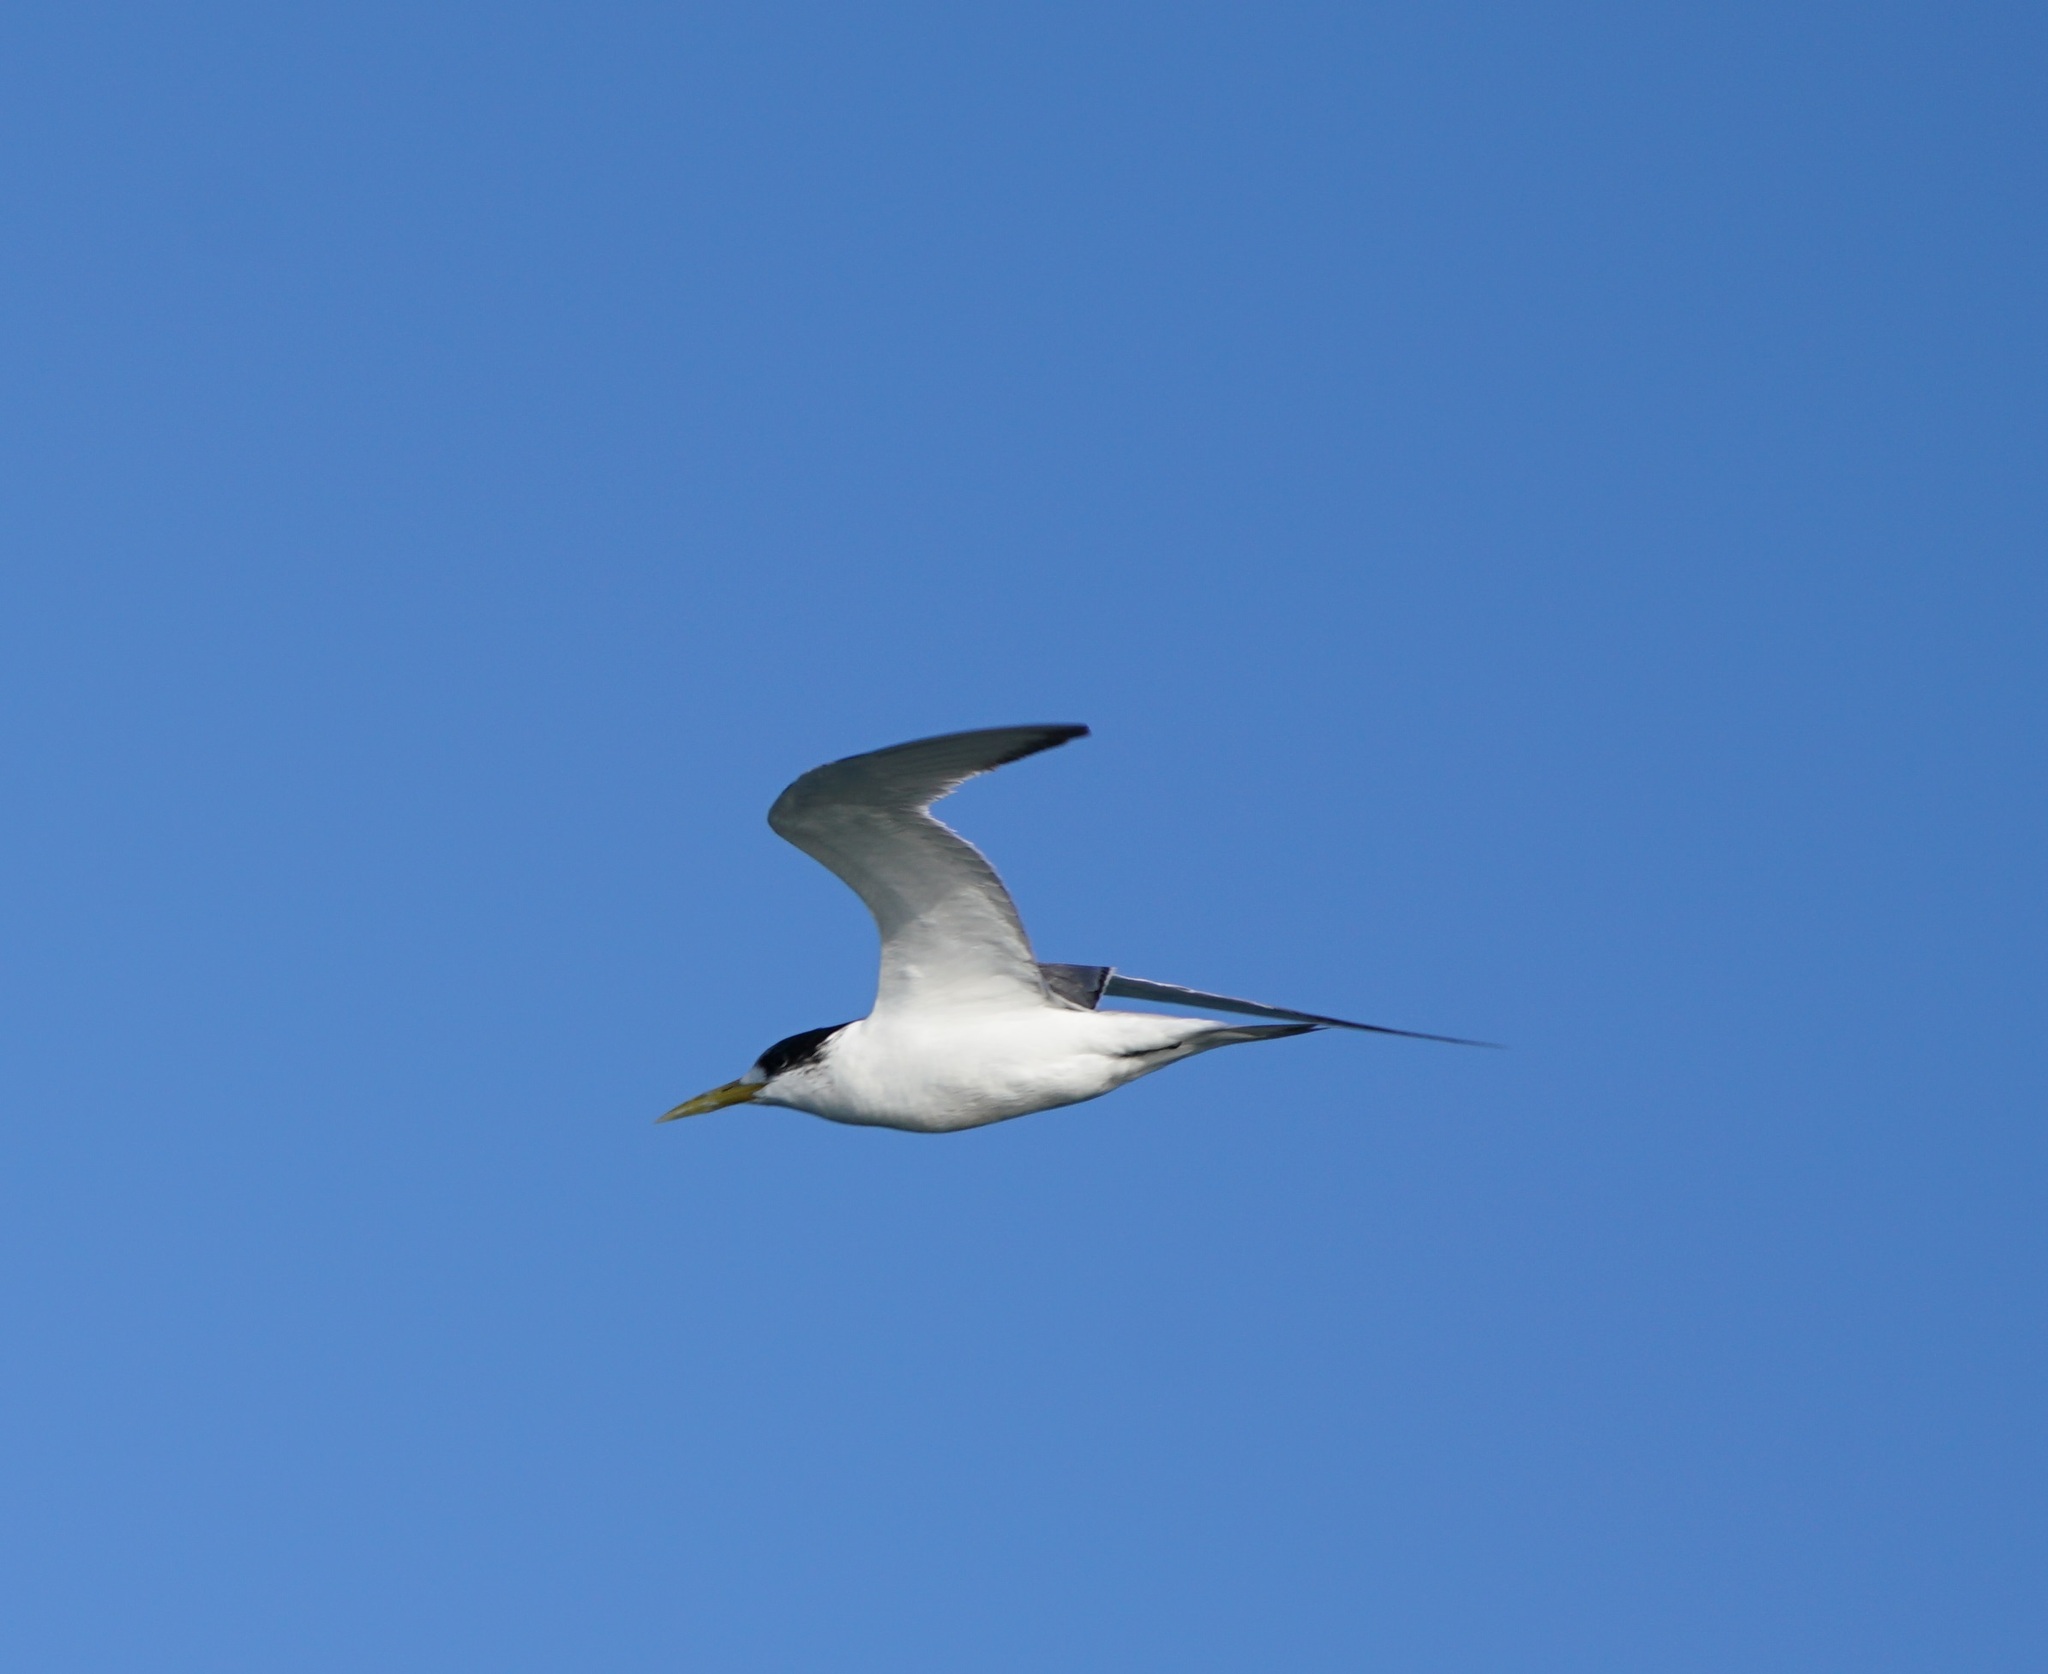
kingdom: Animalia
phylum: Chordata
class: Aves
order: Charadriiformes
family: Laridae
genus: Thalasseus
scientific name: Thalasseus bergii
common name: Greater crested tern
